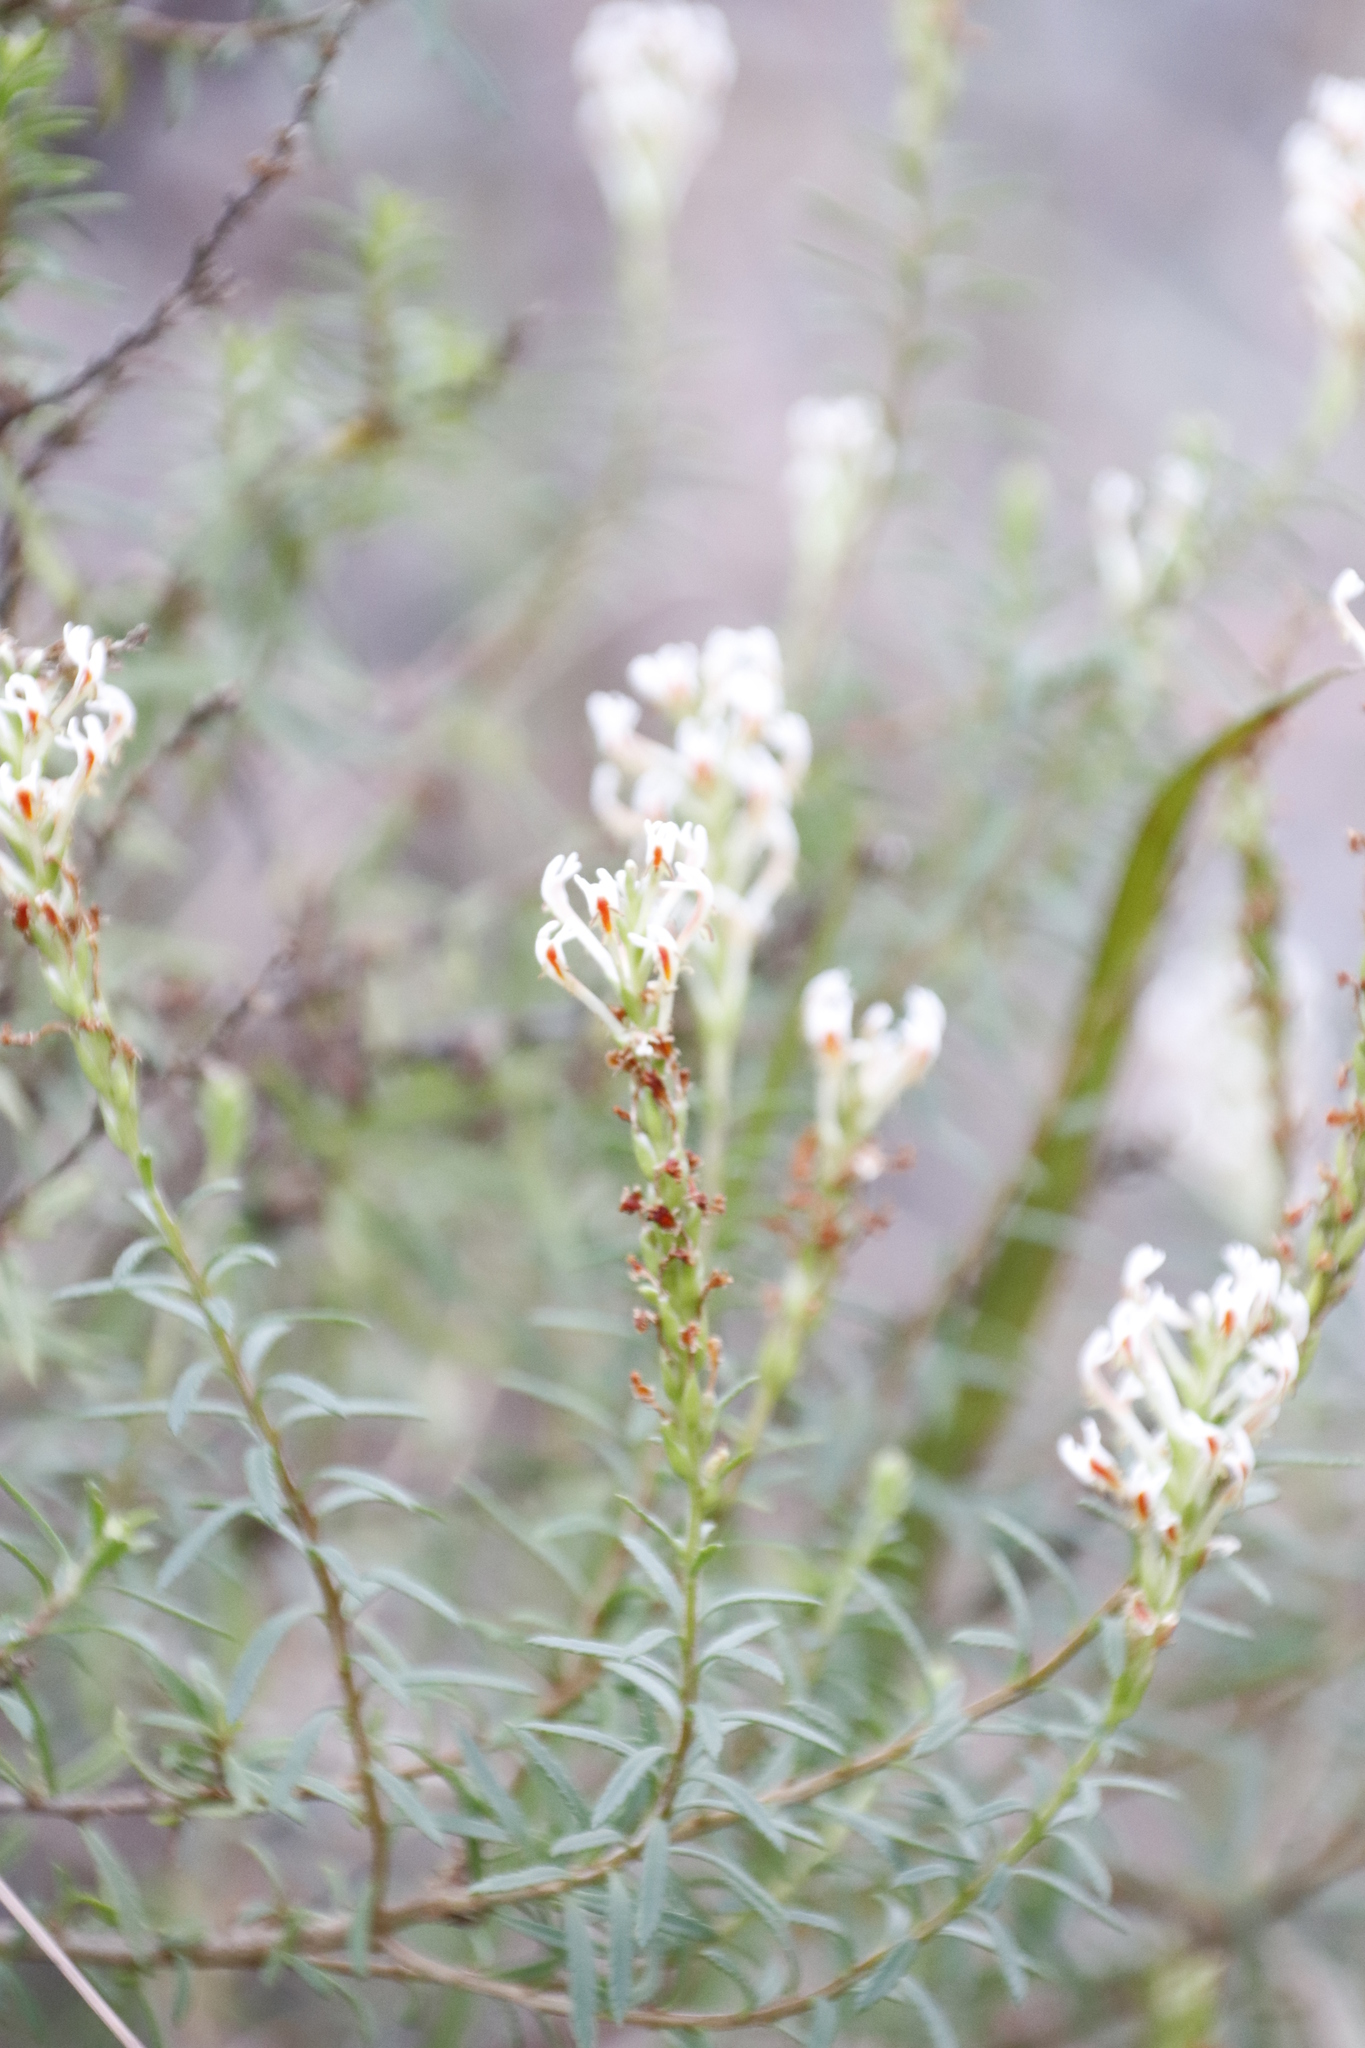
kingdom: Plantae
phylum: Tracheophyta
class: Magnoliopsida
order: Lamiales
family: Scrophulariaceae
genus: Hebenstretia
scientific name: Hebenstretia dura
